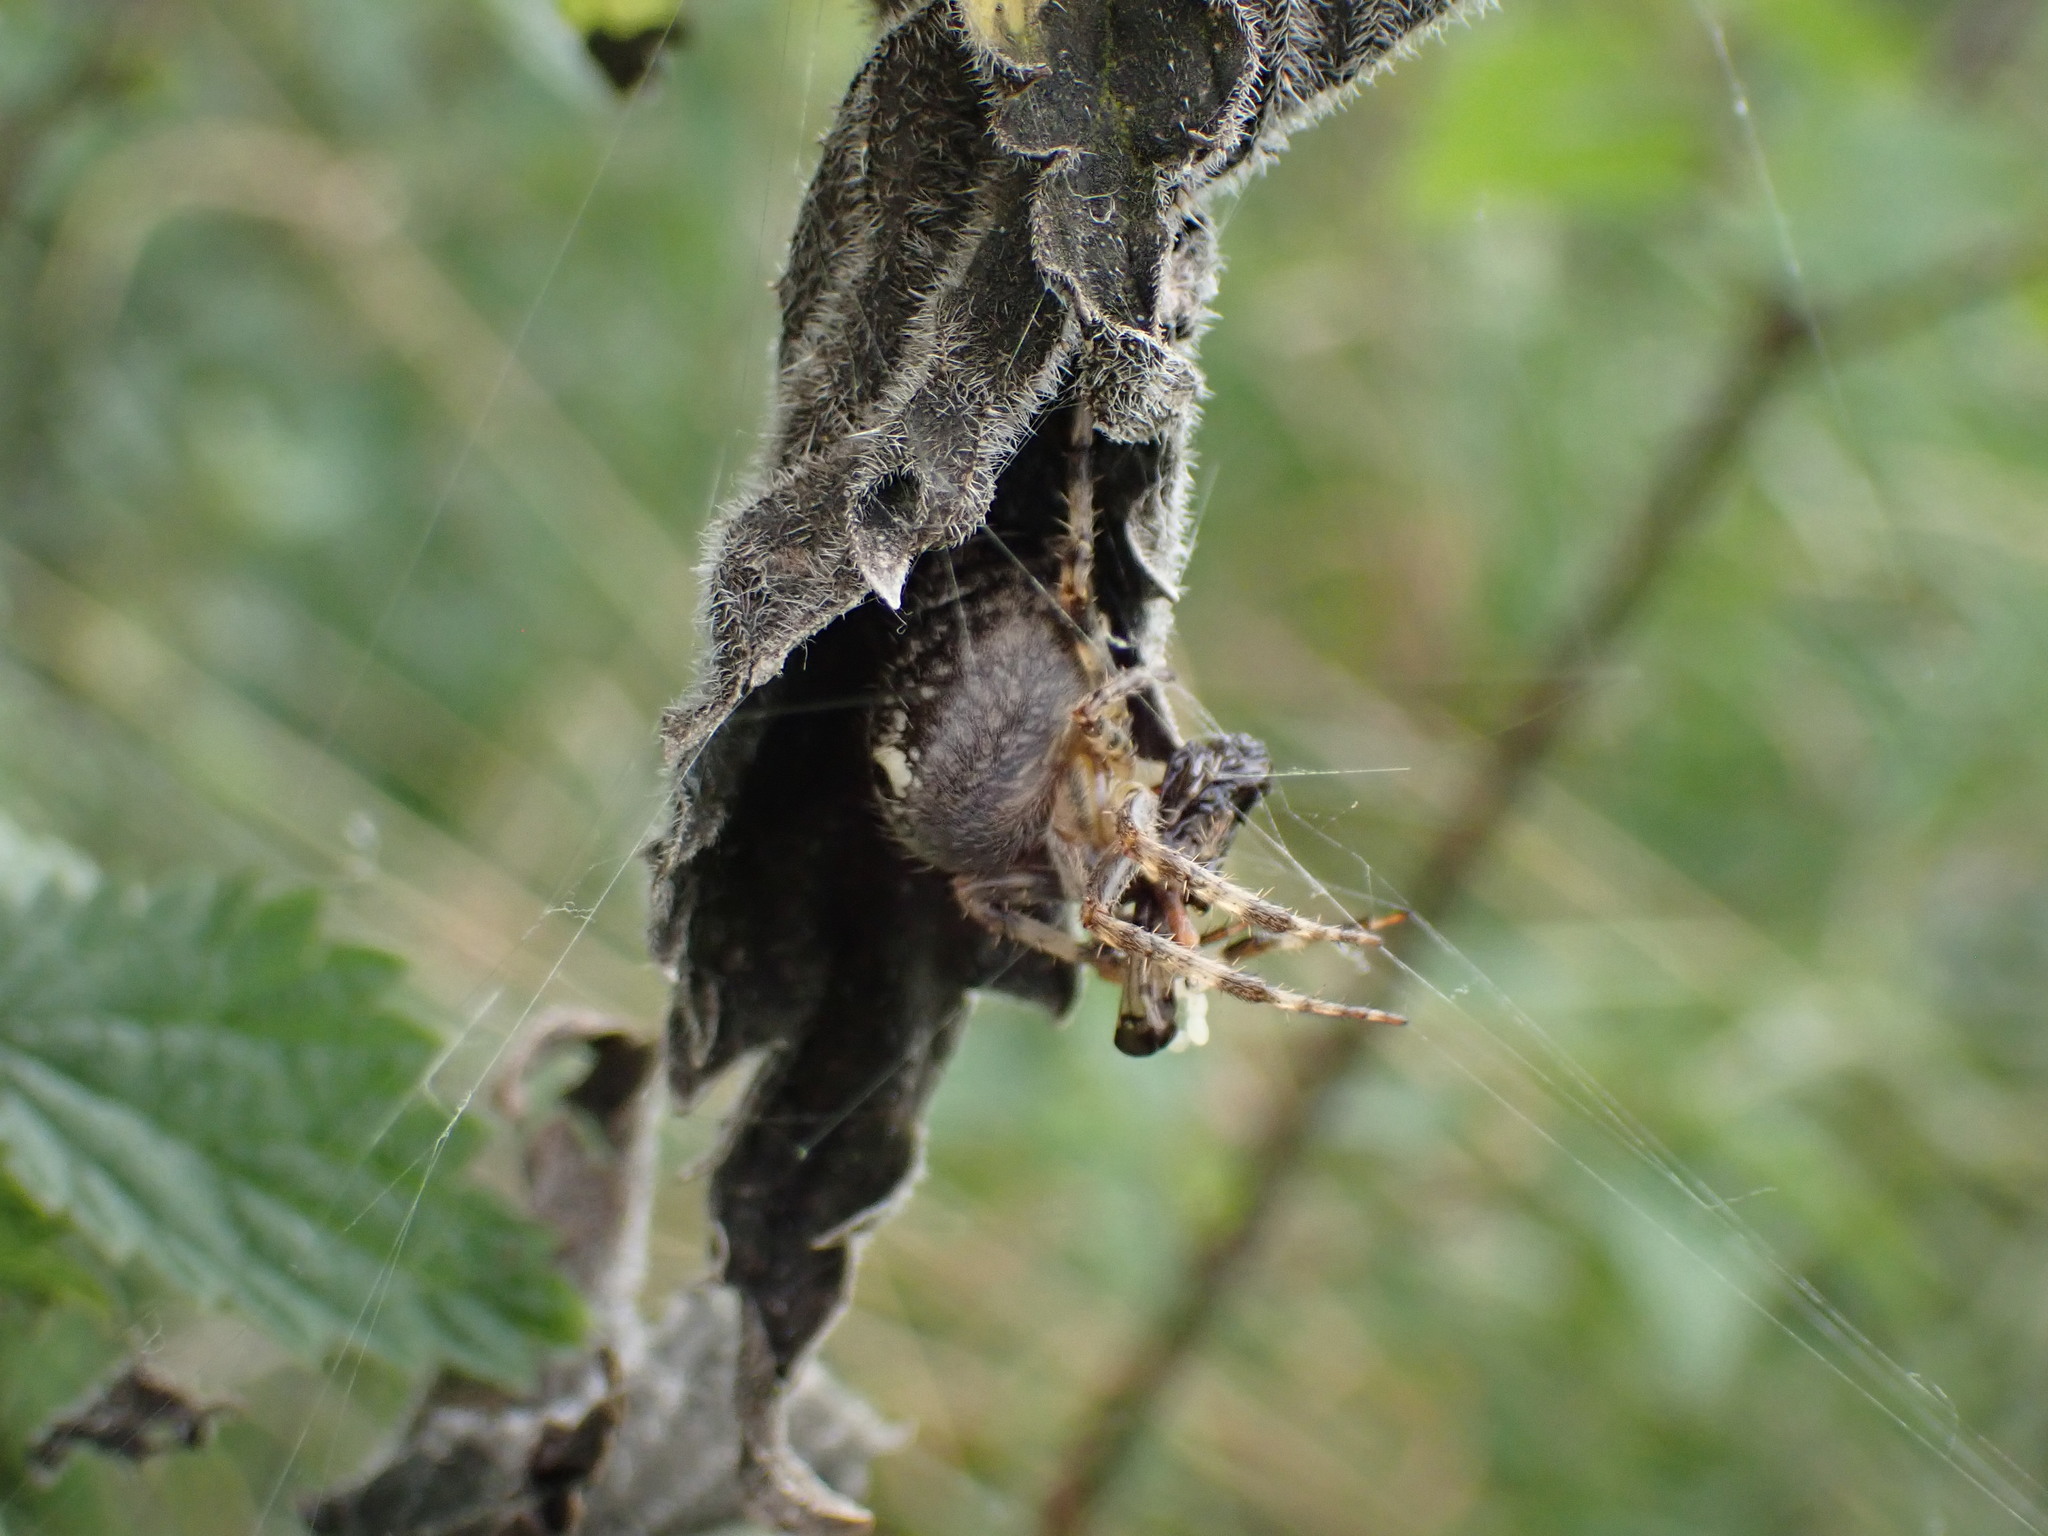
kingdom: Animalia
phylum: Arthropoda
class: Arachnida
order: Araneae
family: Araneidae
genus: Araneus
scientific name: Araneus diadematus
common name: Cross orbweaver
